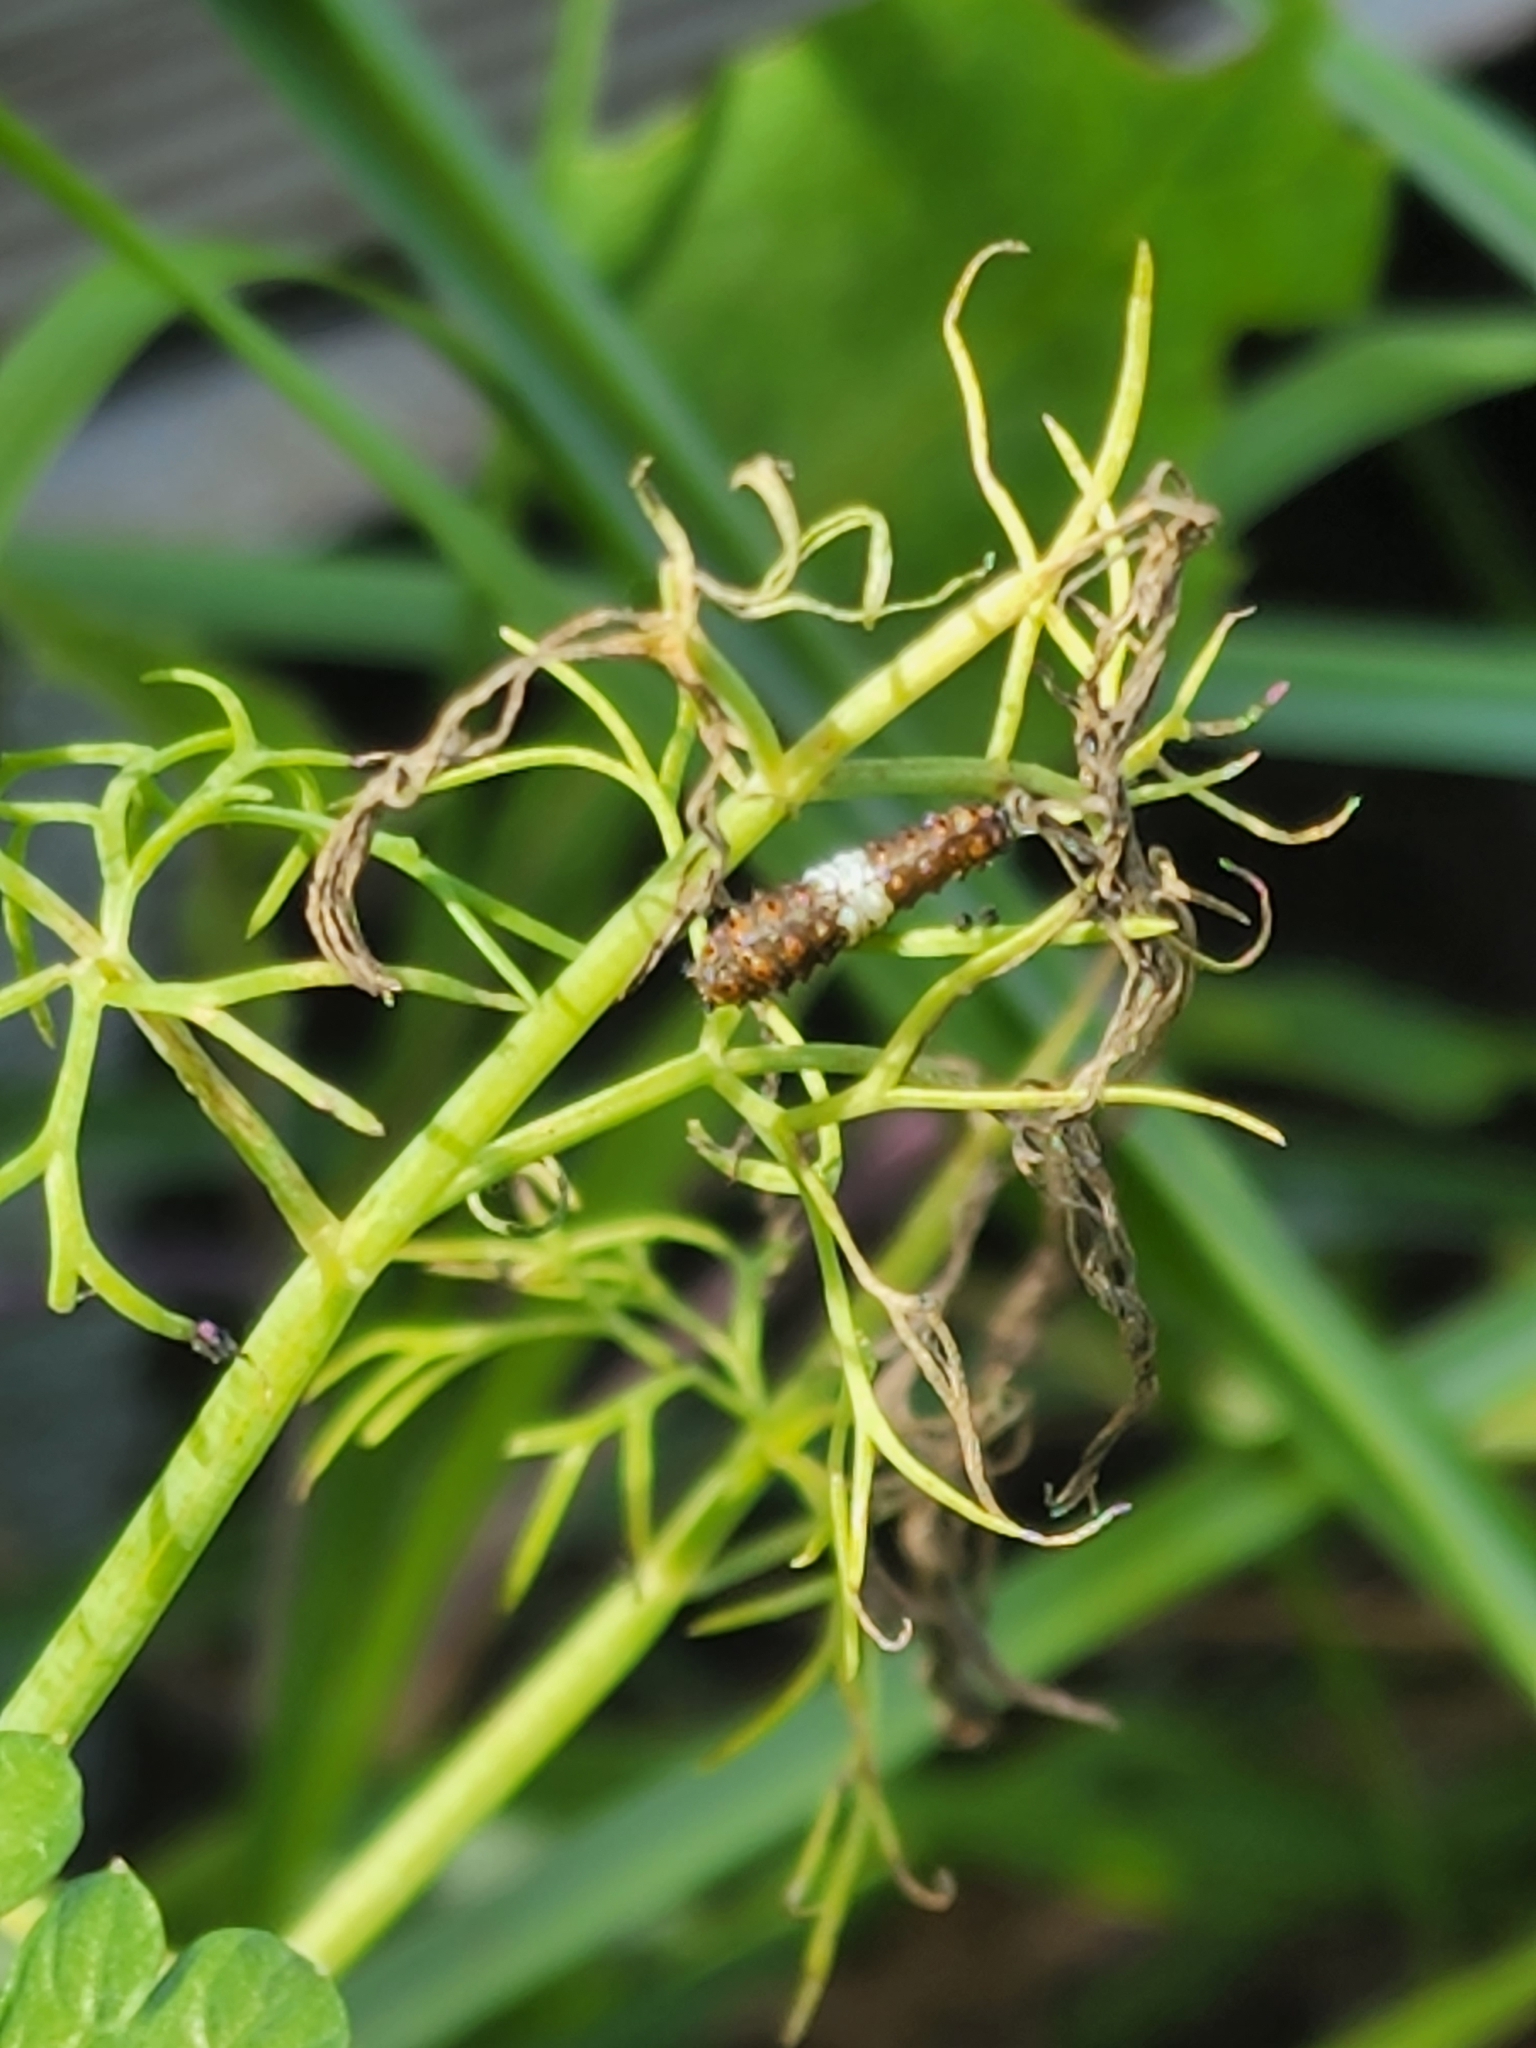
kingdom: Animalia
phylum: Arthropoda
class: Insecta
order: Lepidoptera
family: Papilionidae
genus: Papilio
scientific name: Papilio polyxenes
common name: Black swallowtail
